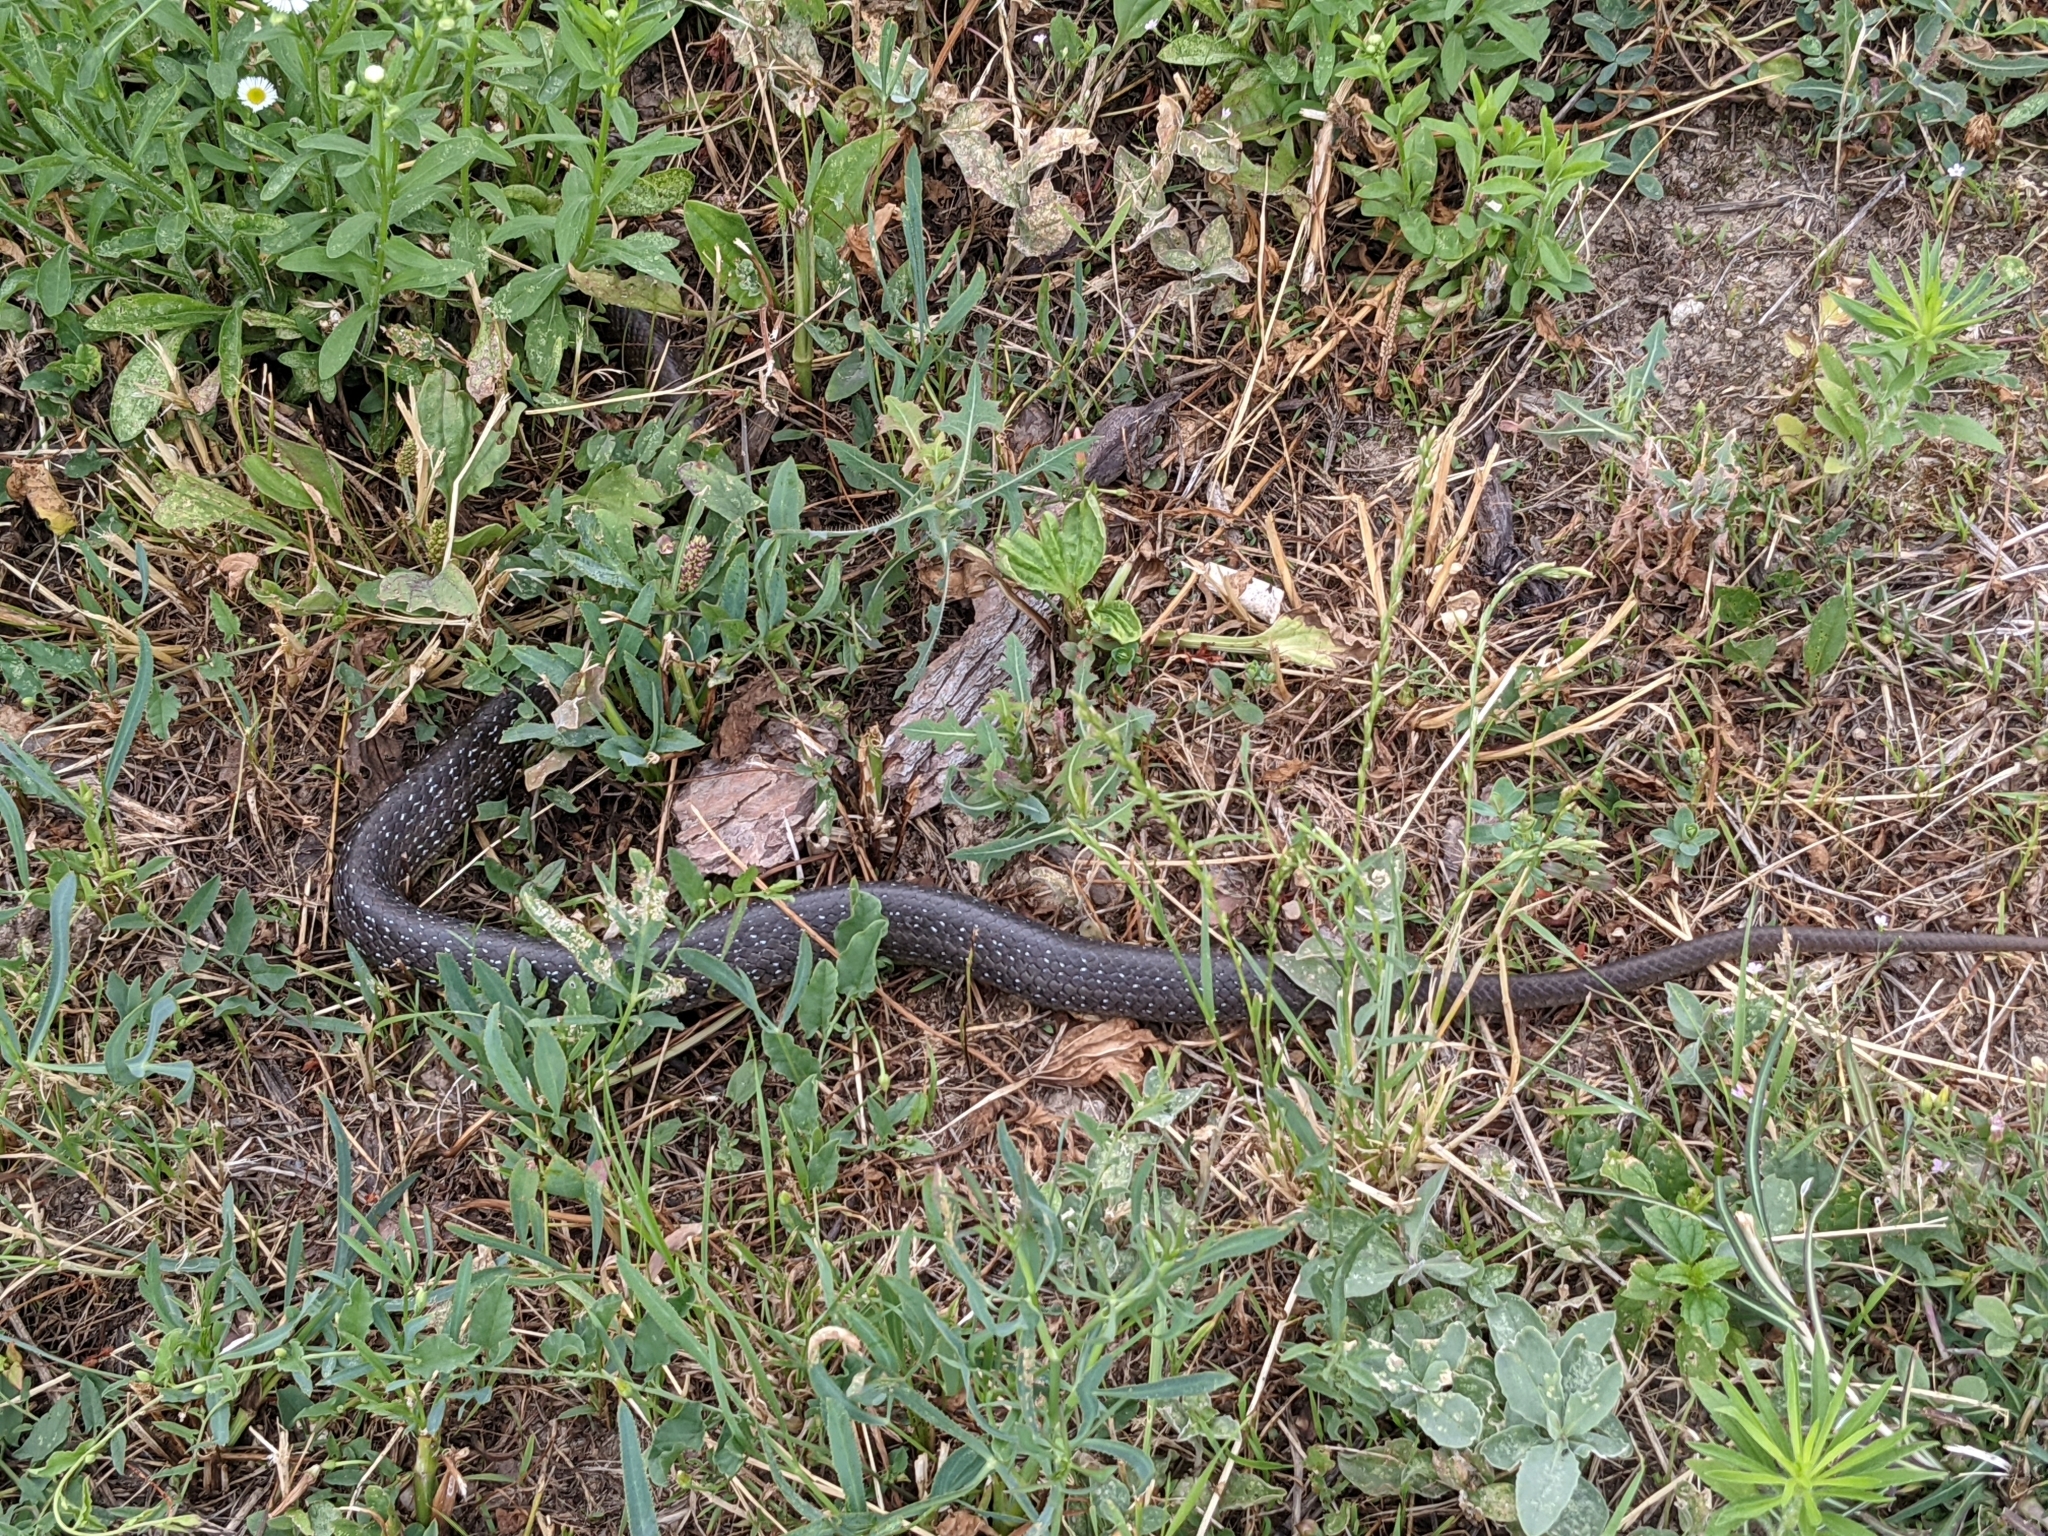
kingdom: Animalia
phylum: Chordata
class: Squamata
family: Colubridae
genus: Zamenis
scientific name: Zamenis longissimus
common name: Aesculapean snake
